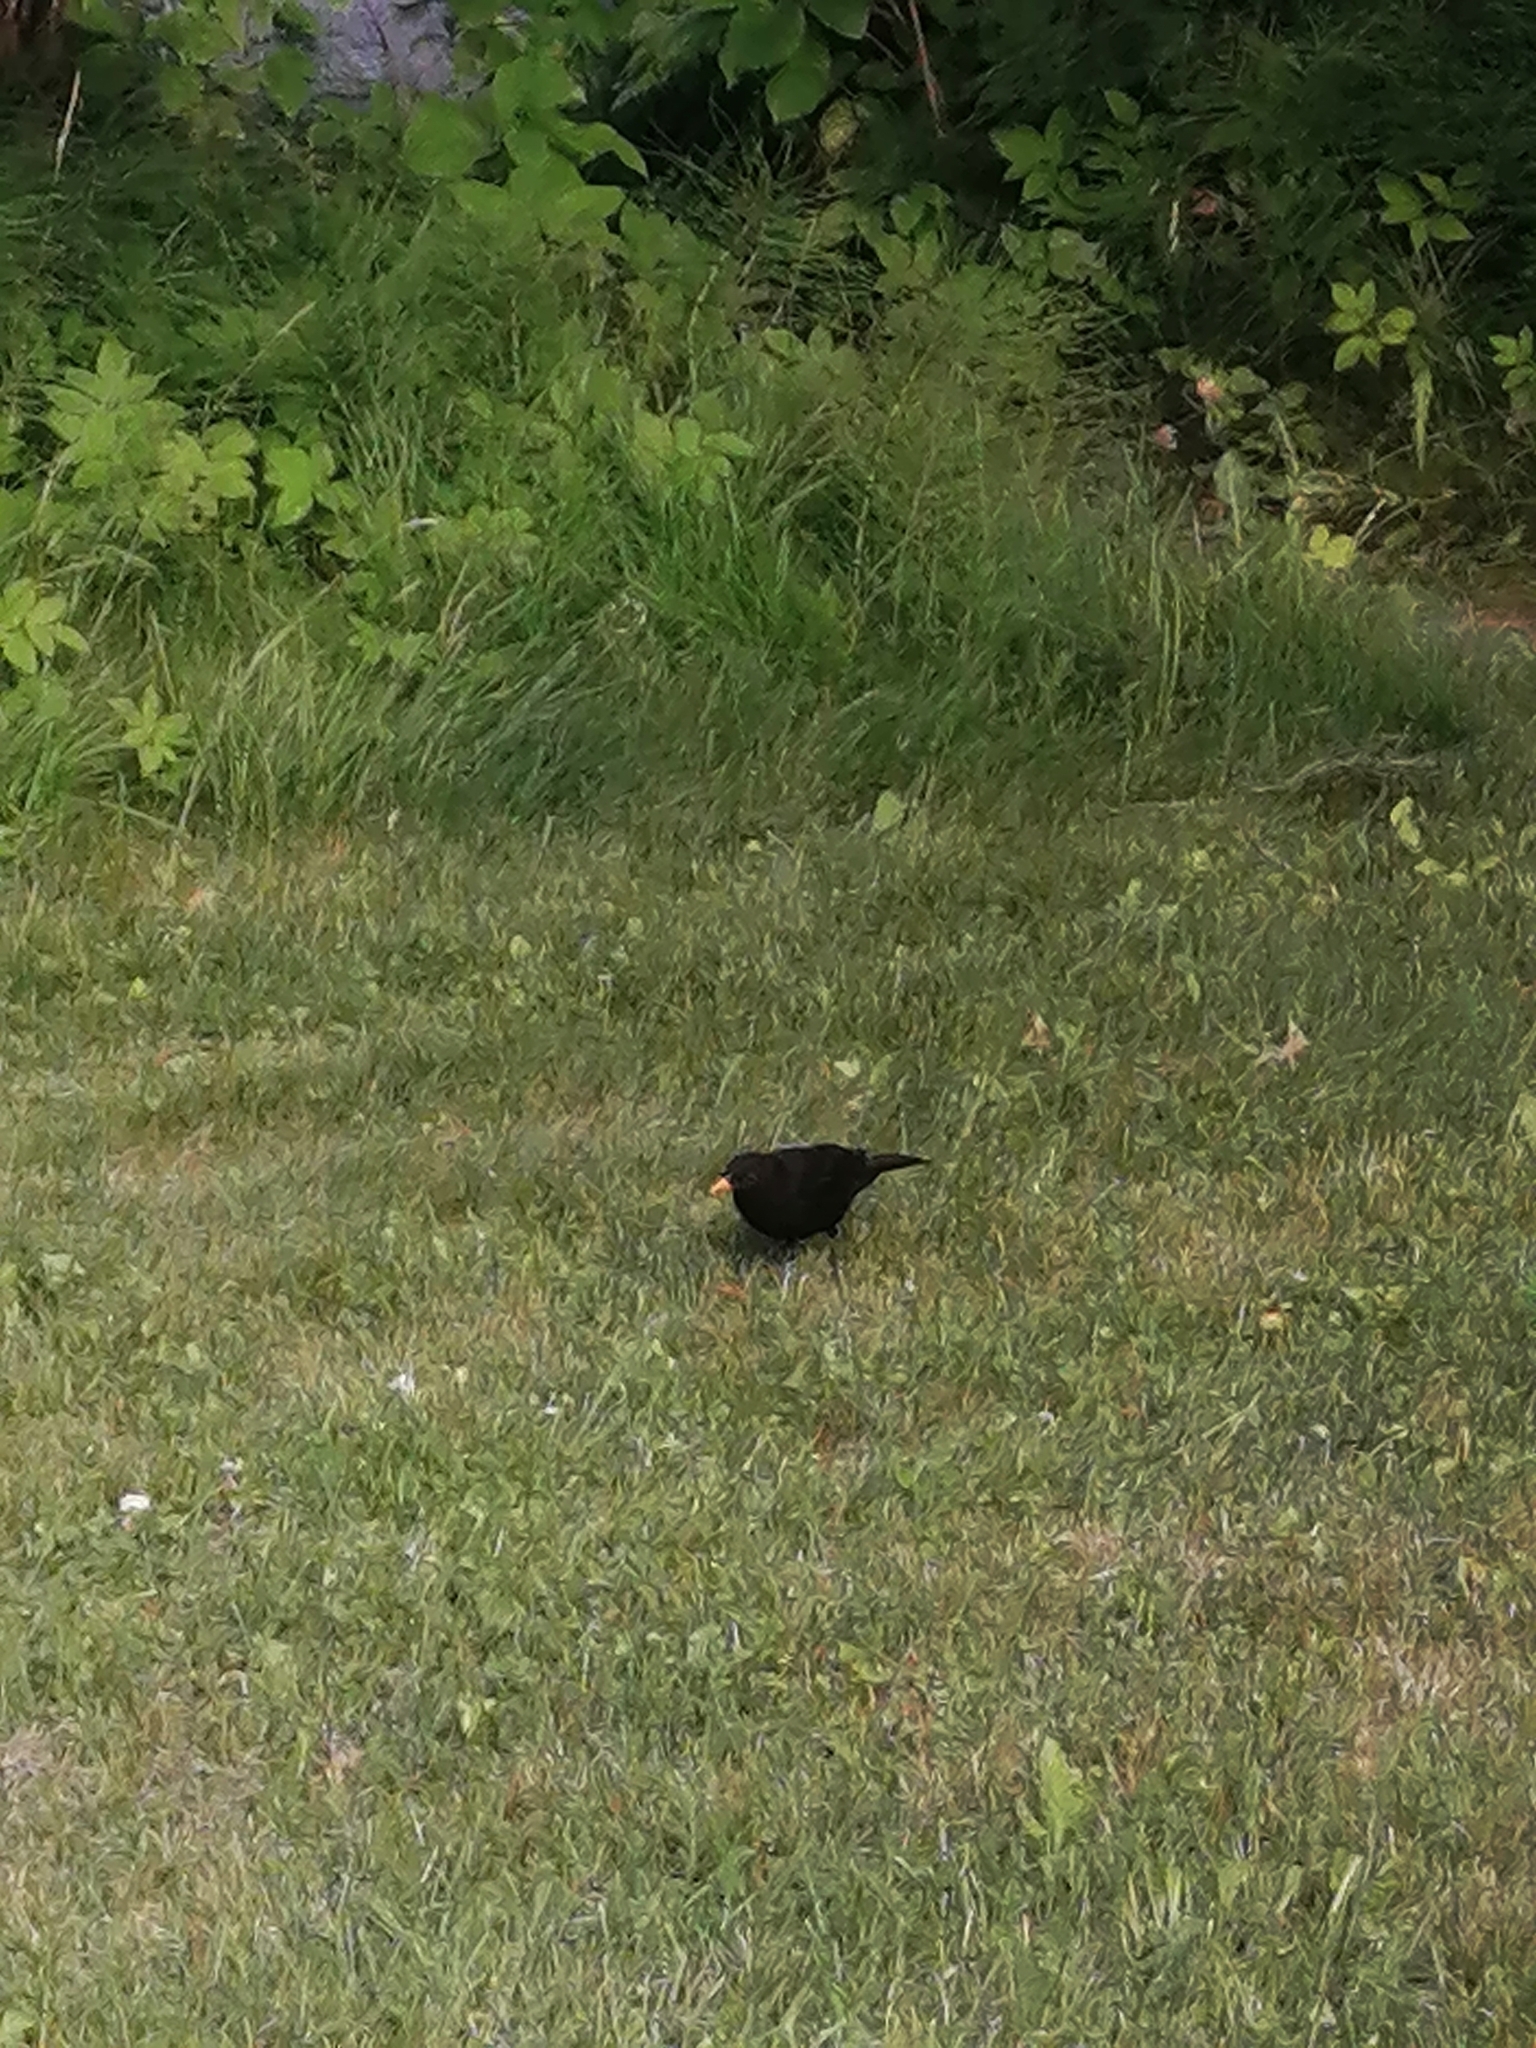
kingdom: Animalia
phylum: Chordata
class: Aves
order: Passeriformes
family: Turdidae
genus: Turdus
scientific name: Turdus merula
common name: Common blackbird
